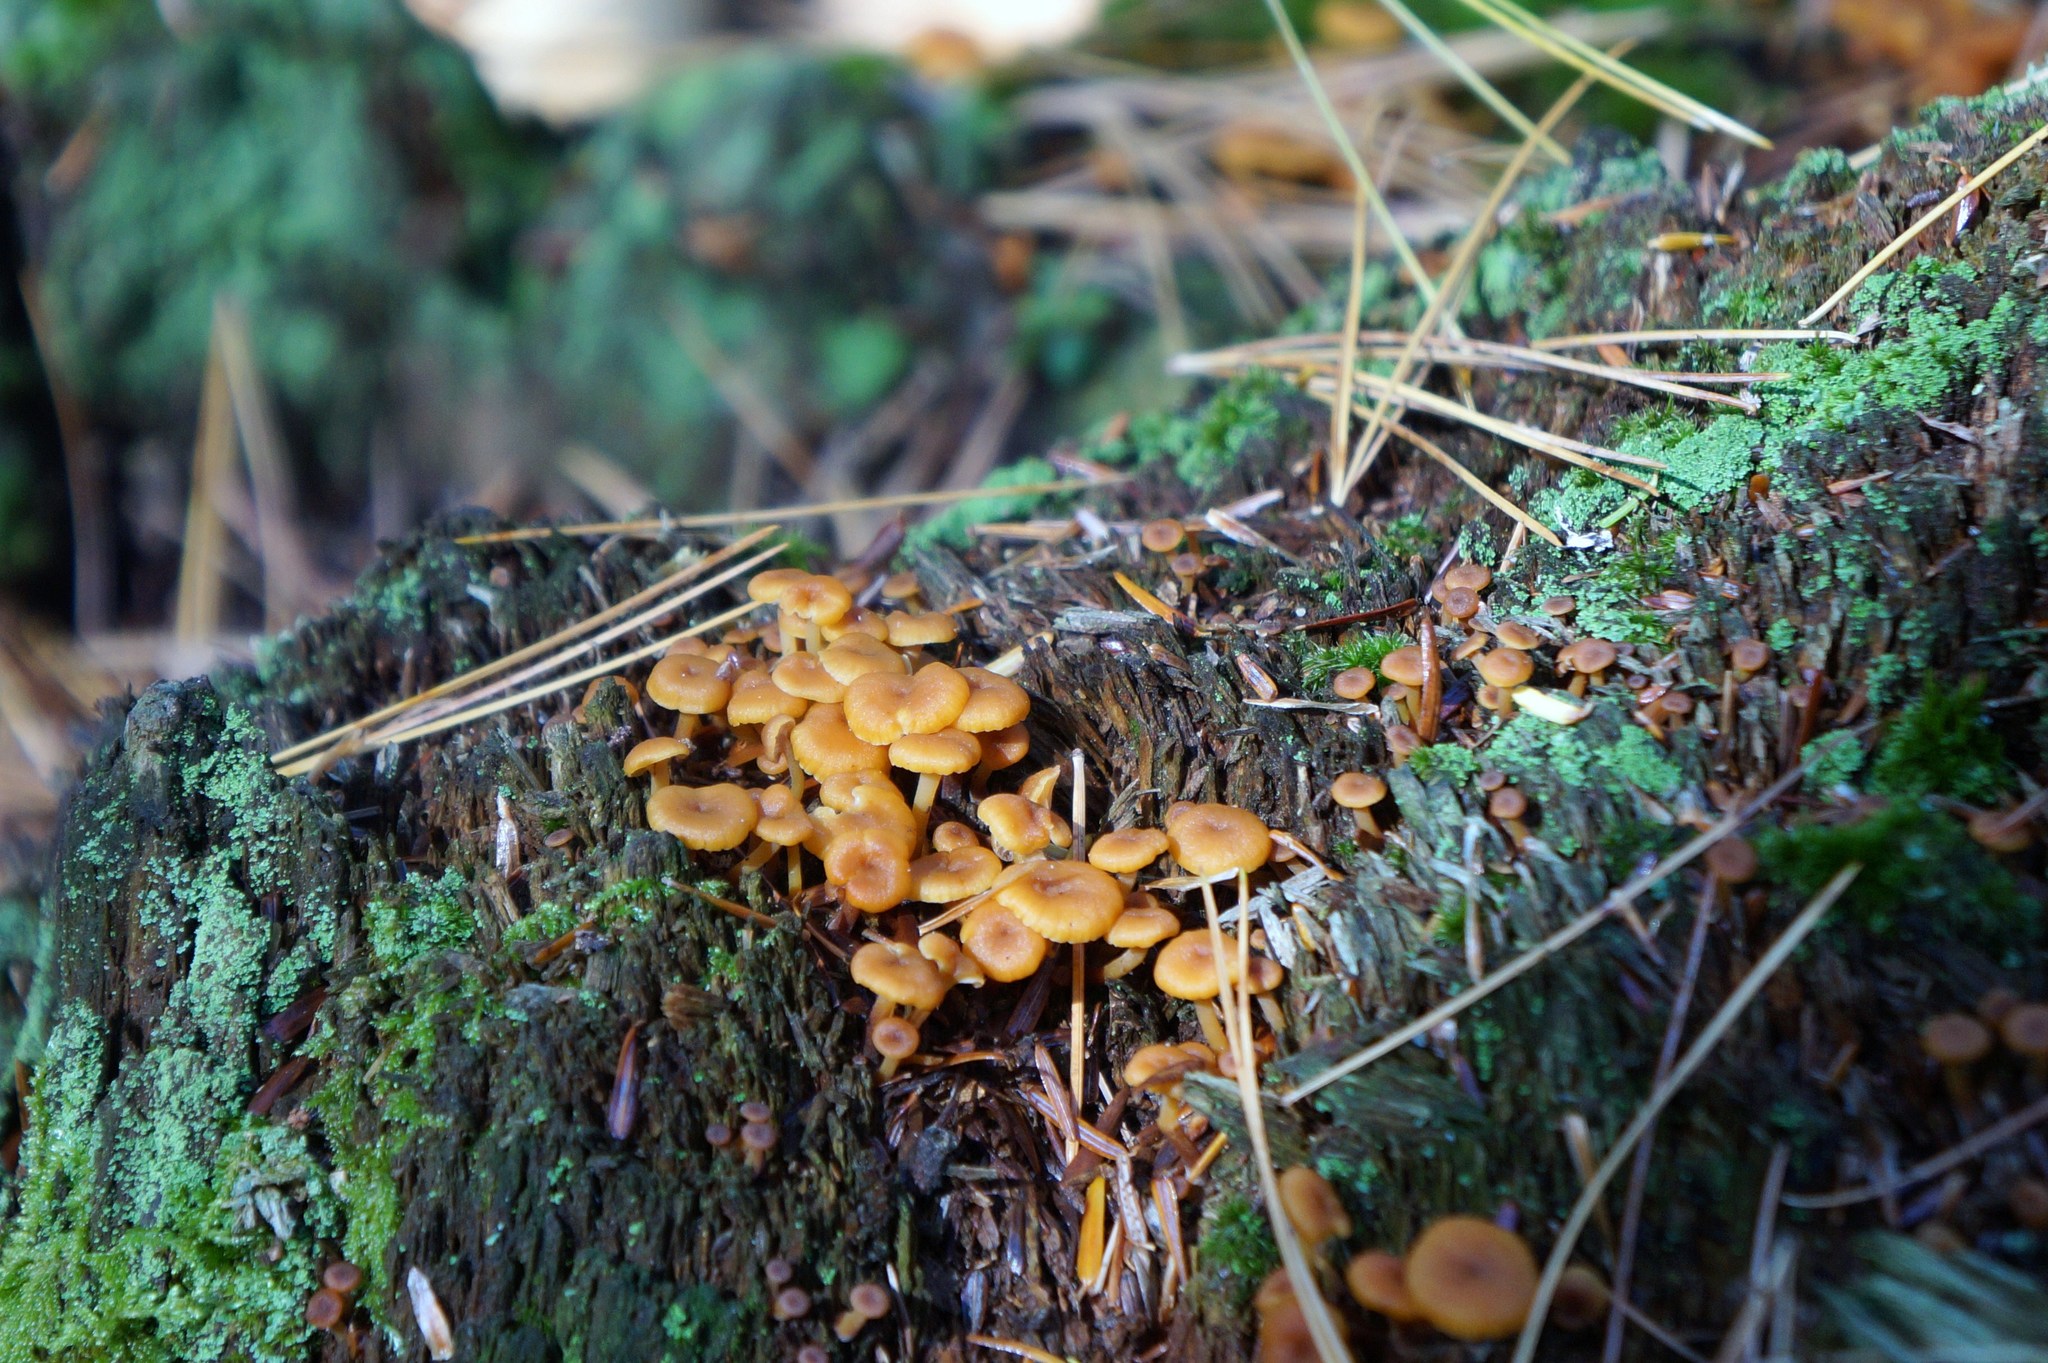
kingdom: Fungi
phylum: Basidiomycota
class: Agaricomycetes
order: Agaricales
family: Mycenaceae
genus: Xeromphalina
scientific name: Xeromphalina campanella
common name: Pinewood gingertail
